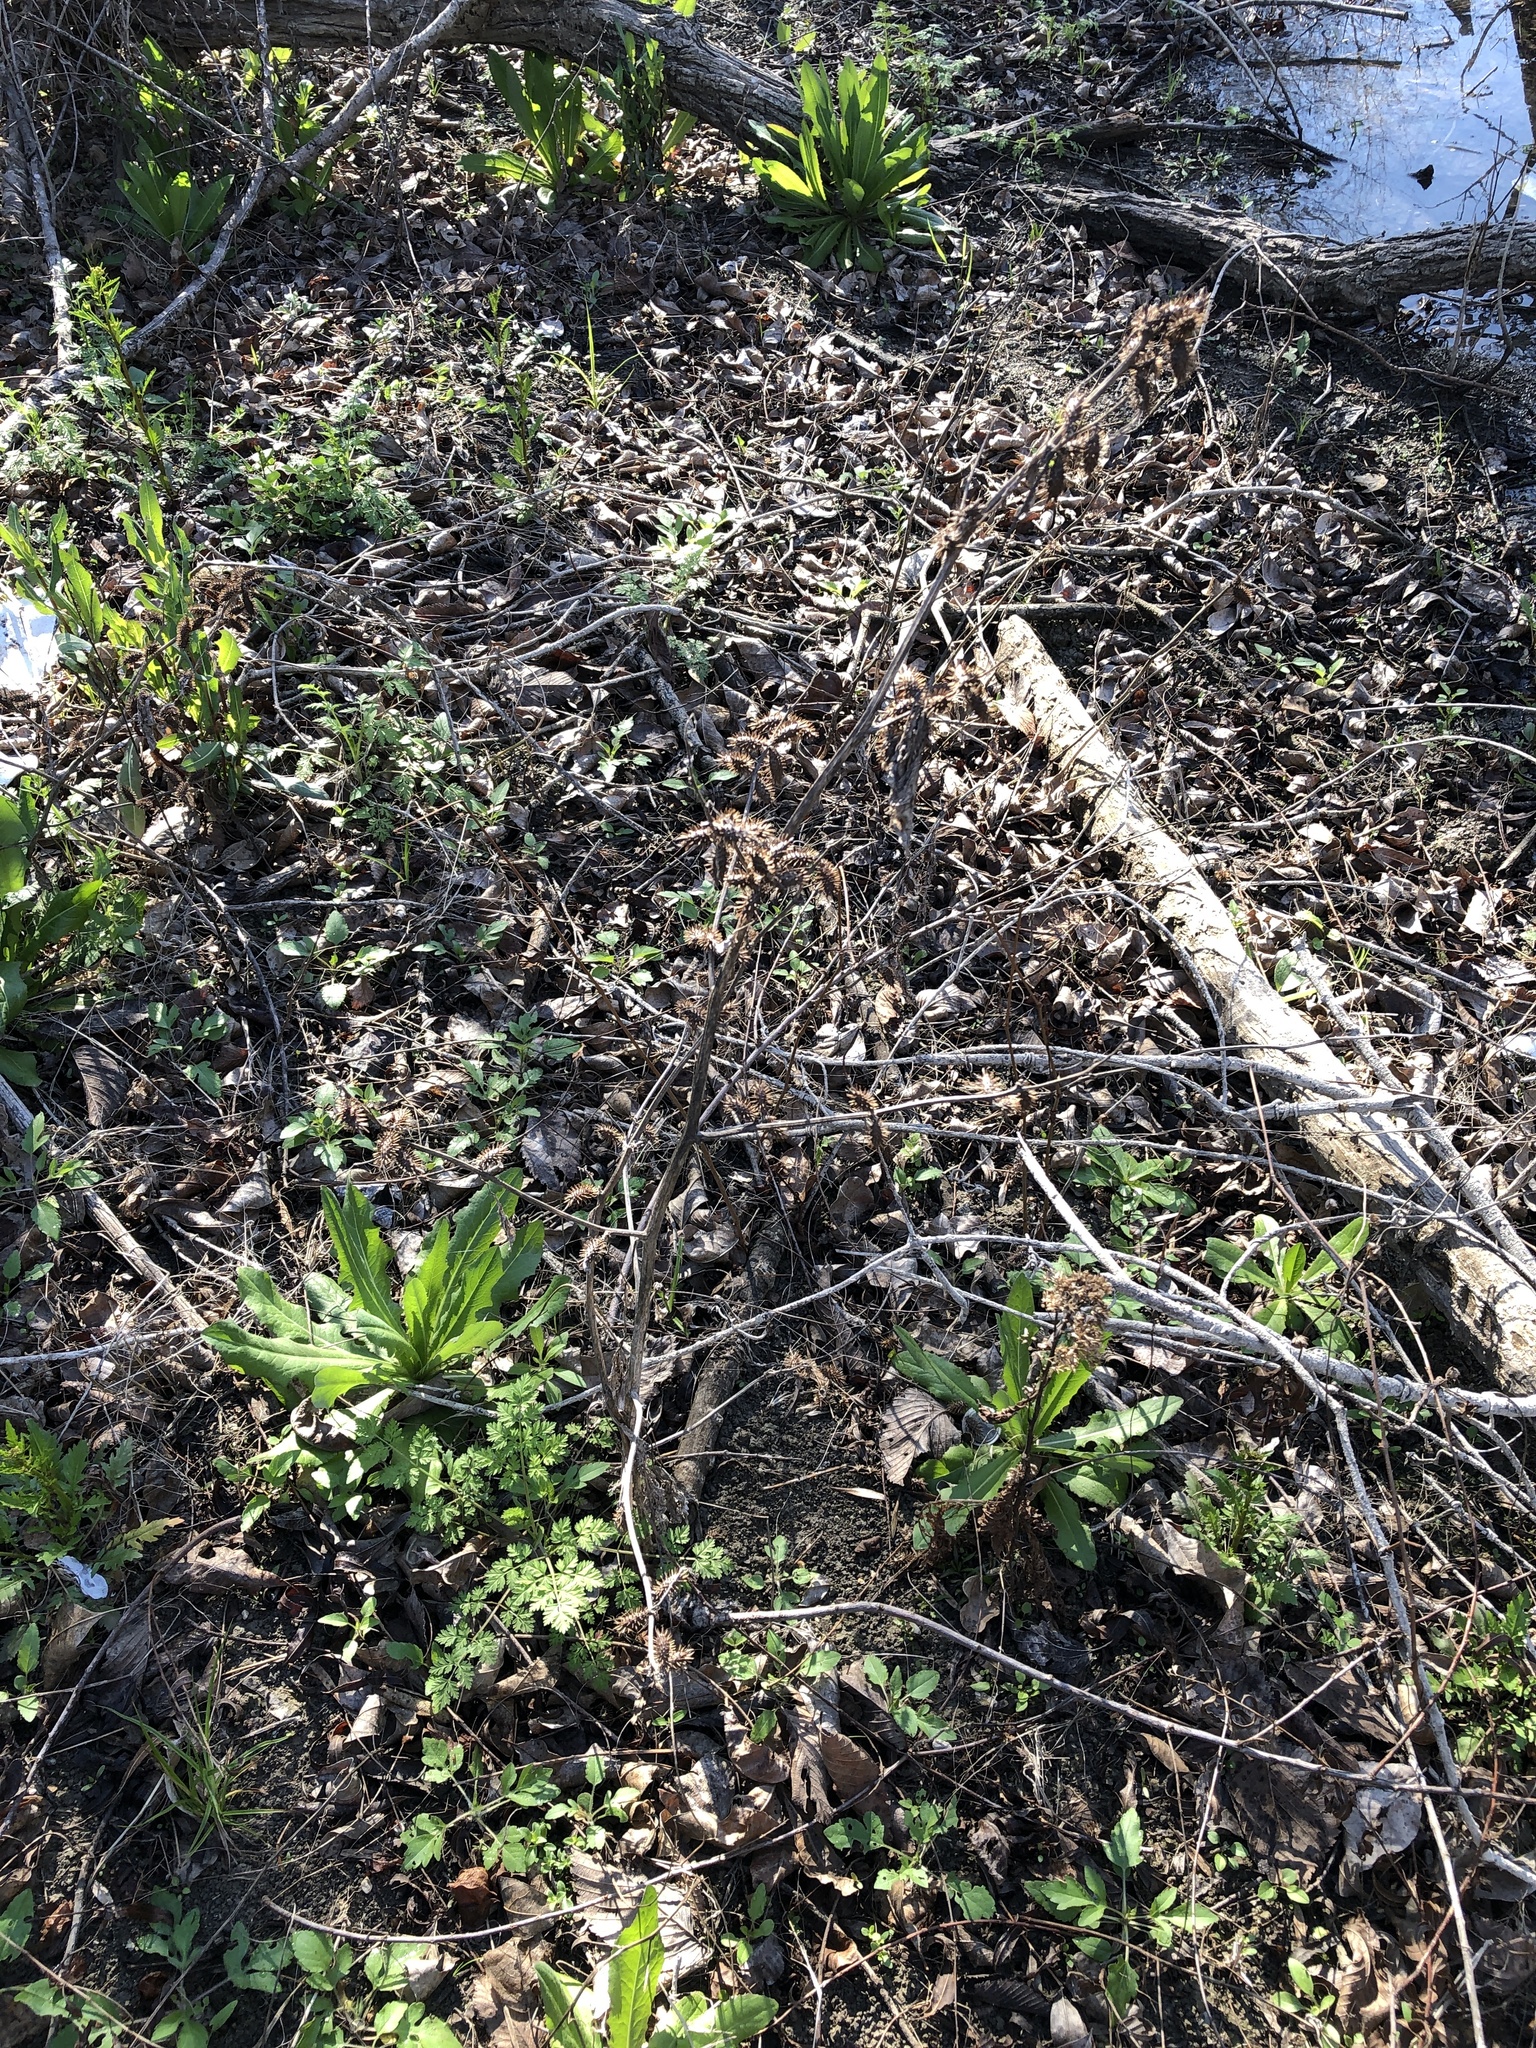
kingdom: Plantae
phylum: Tracheophyta
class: Magnoliopsida
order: Asterales
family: Asteraceae
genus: Xanthium
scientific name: Xanthium strumarium
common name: Rough cocklebur
